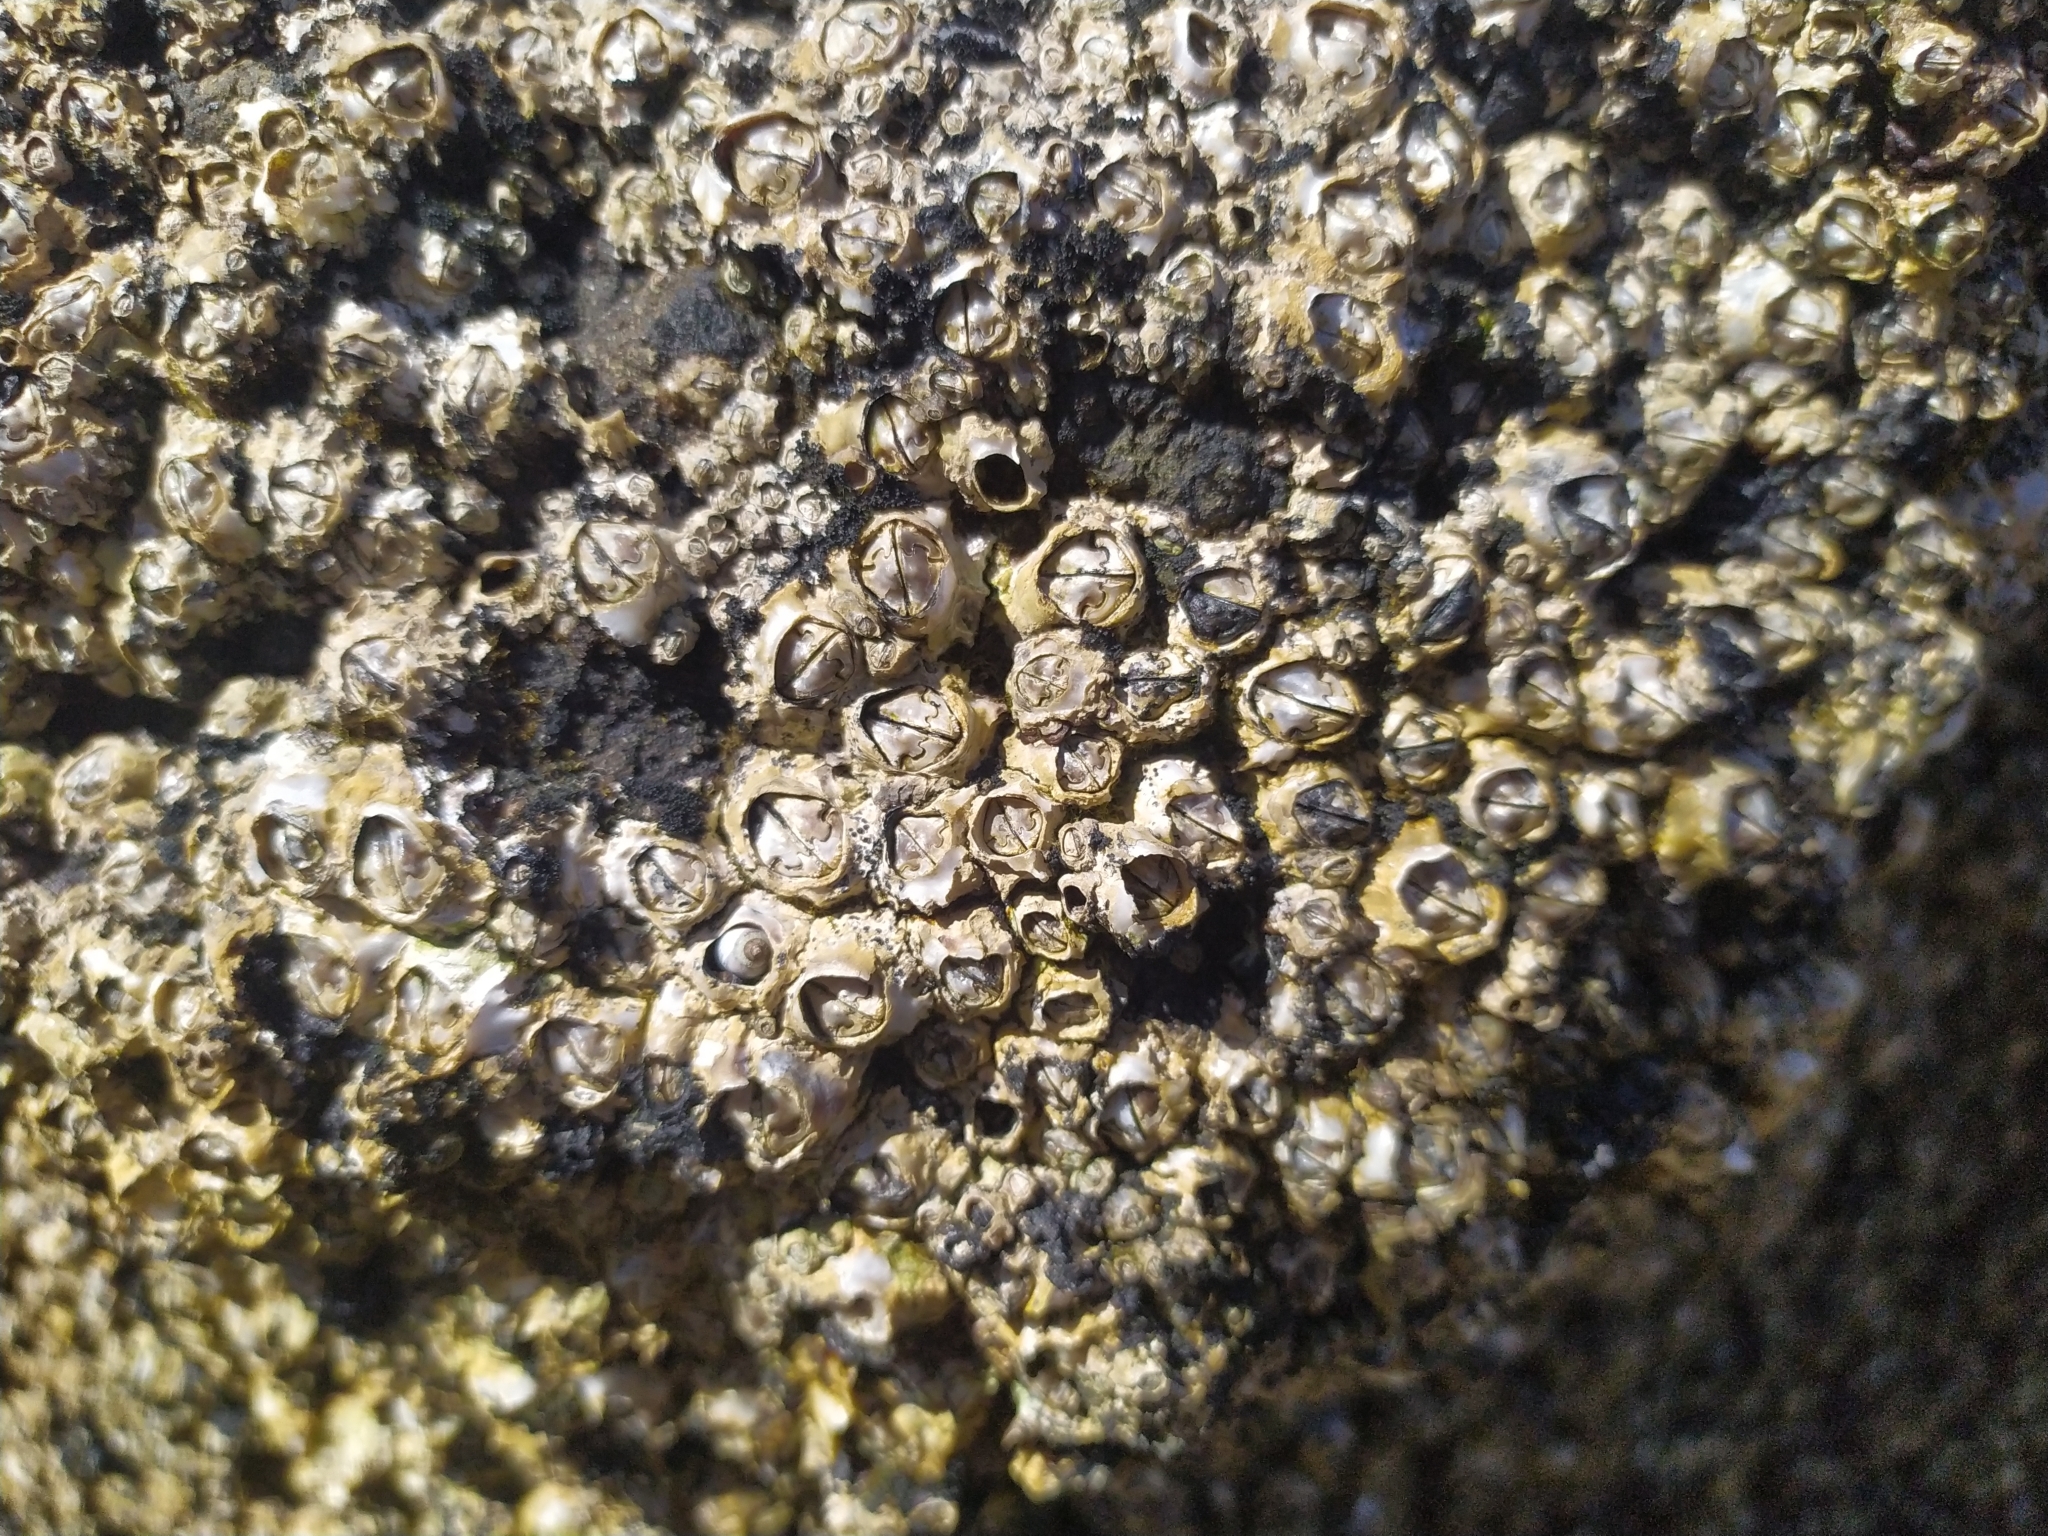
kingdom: Animalia
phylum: Arthropoda
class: Maxillopoda
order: Sessilia
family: Chthamalidae
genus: Chamaesipho
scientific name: Chamaesipho brunnea
